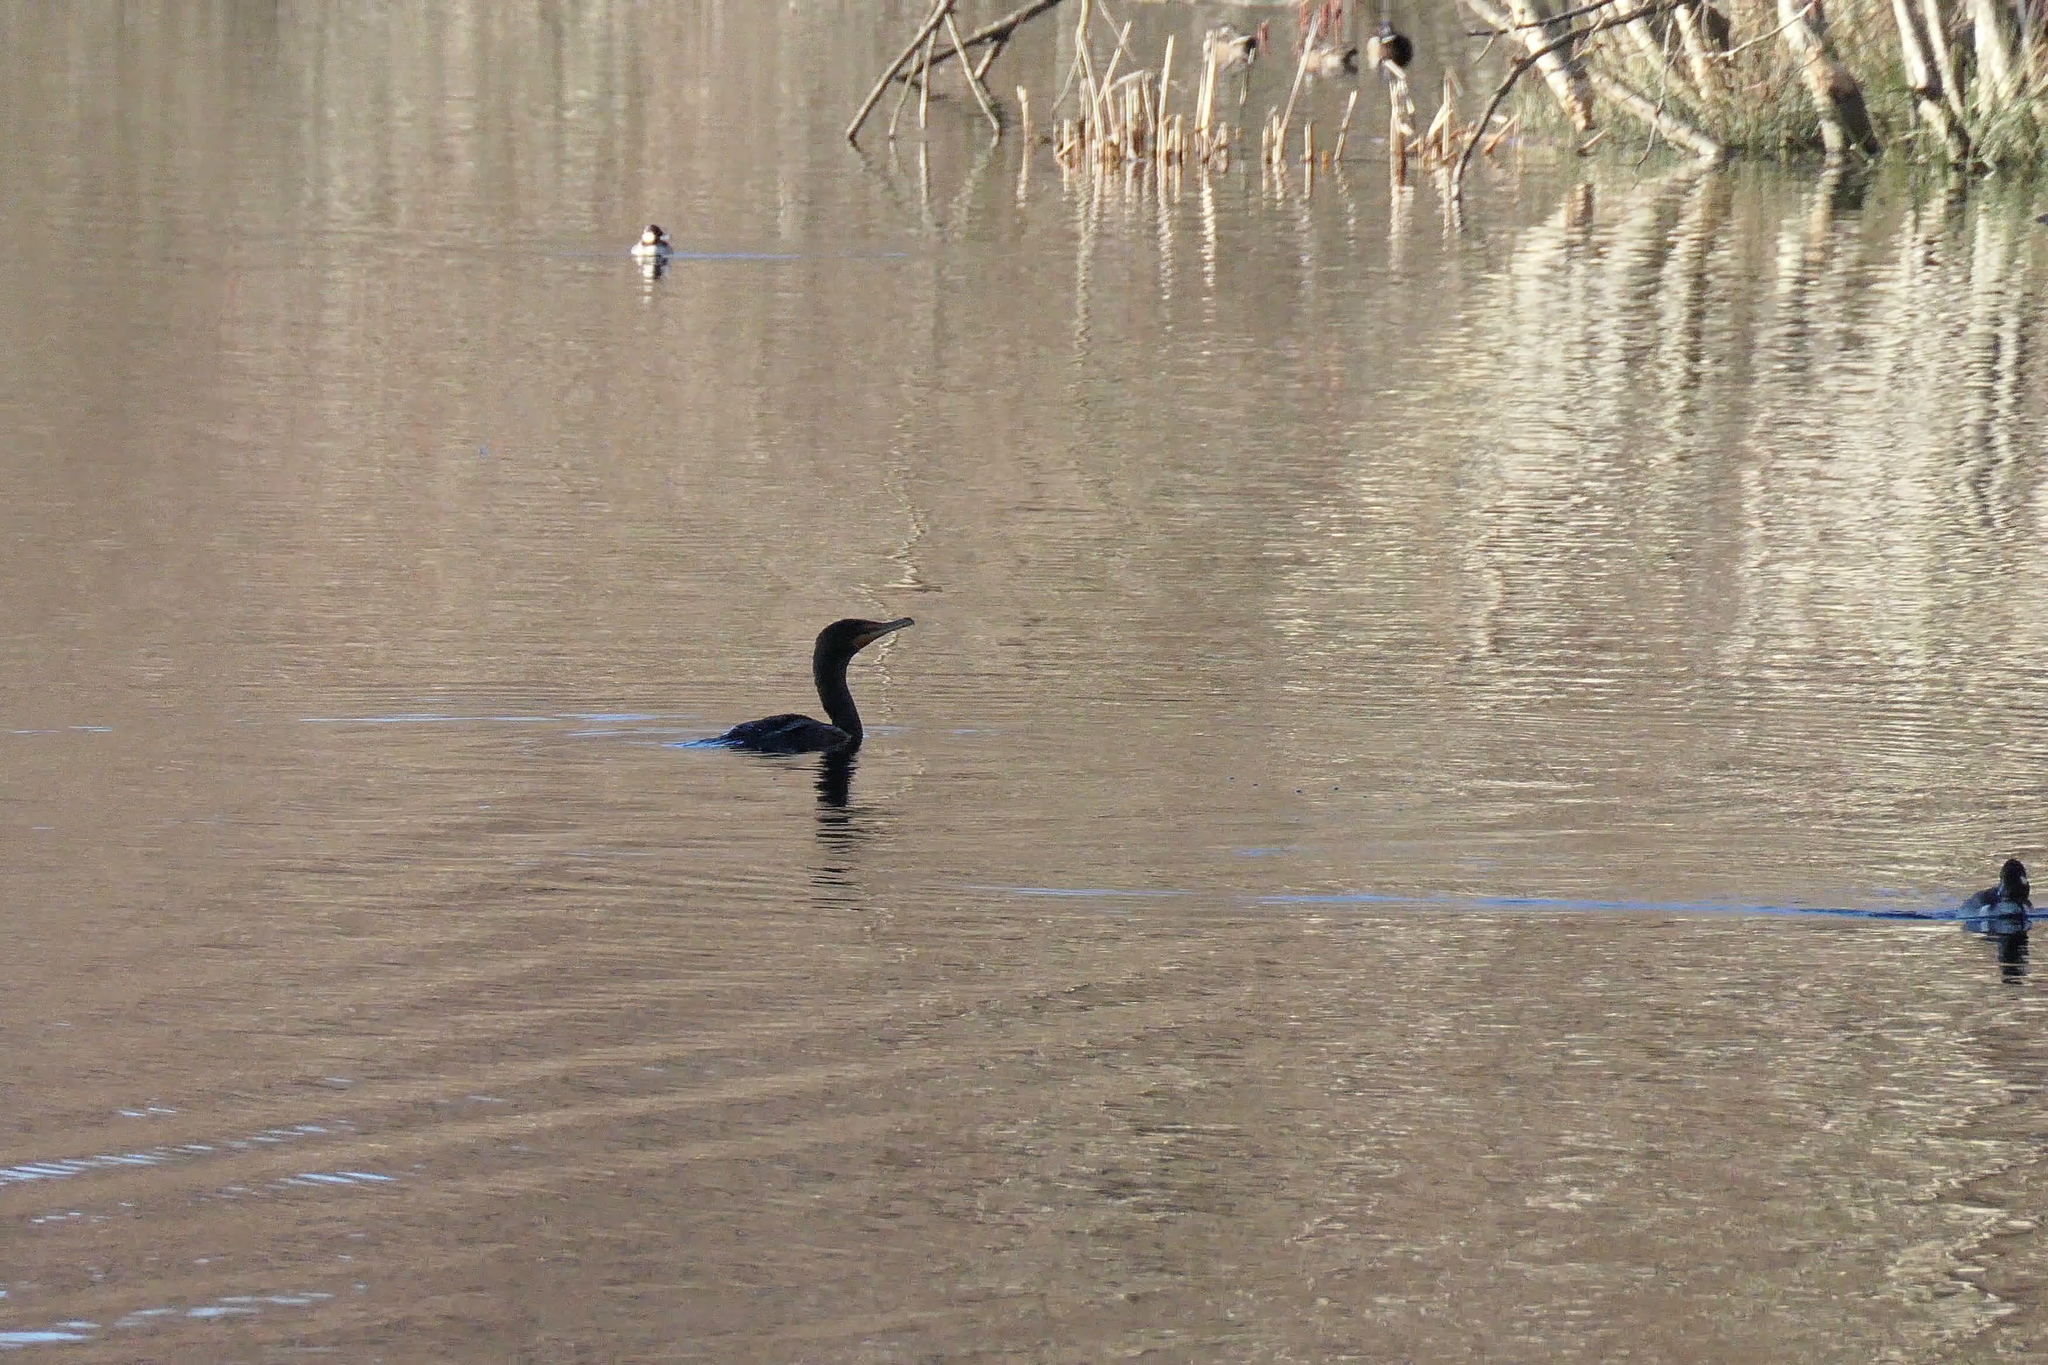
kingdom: Animalia
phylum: Chordata
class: Aves
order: Suliformes
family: Phalacrocoracidae
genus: Phalacrocorax
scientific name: Phalacrocorax auritus
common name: Double-crested cormorant
